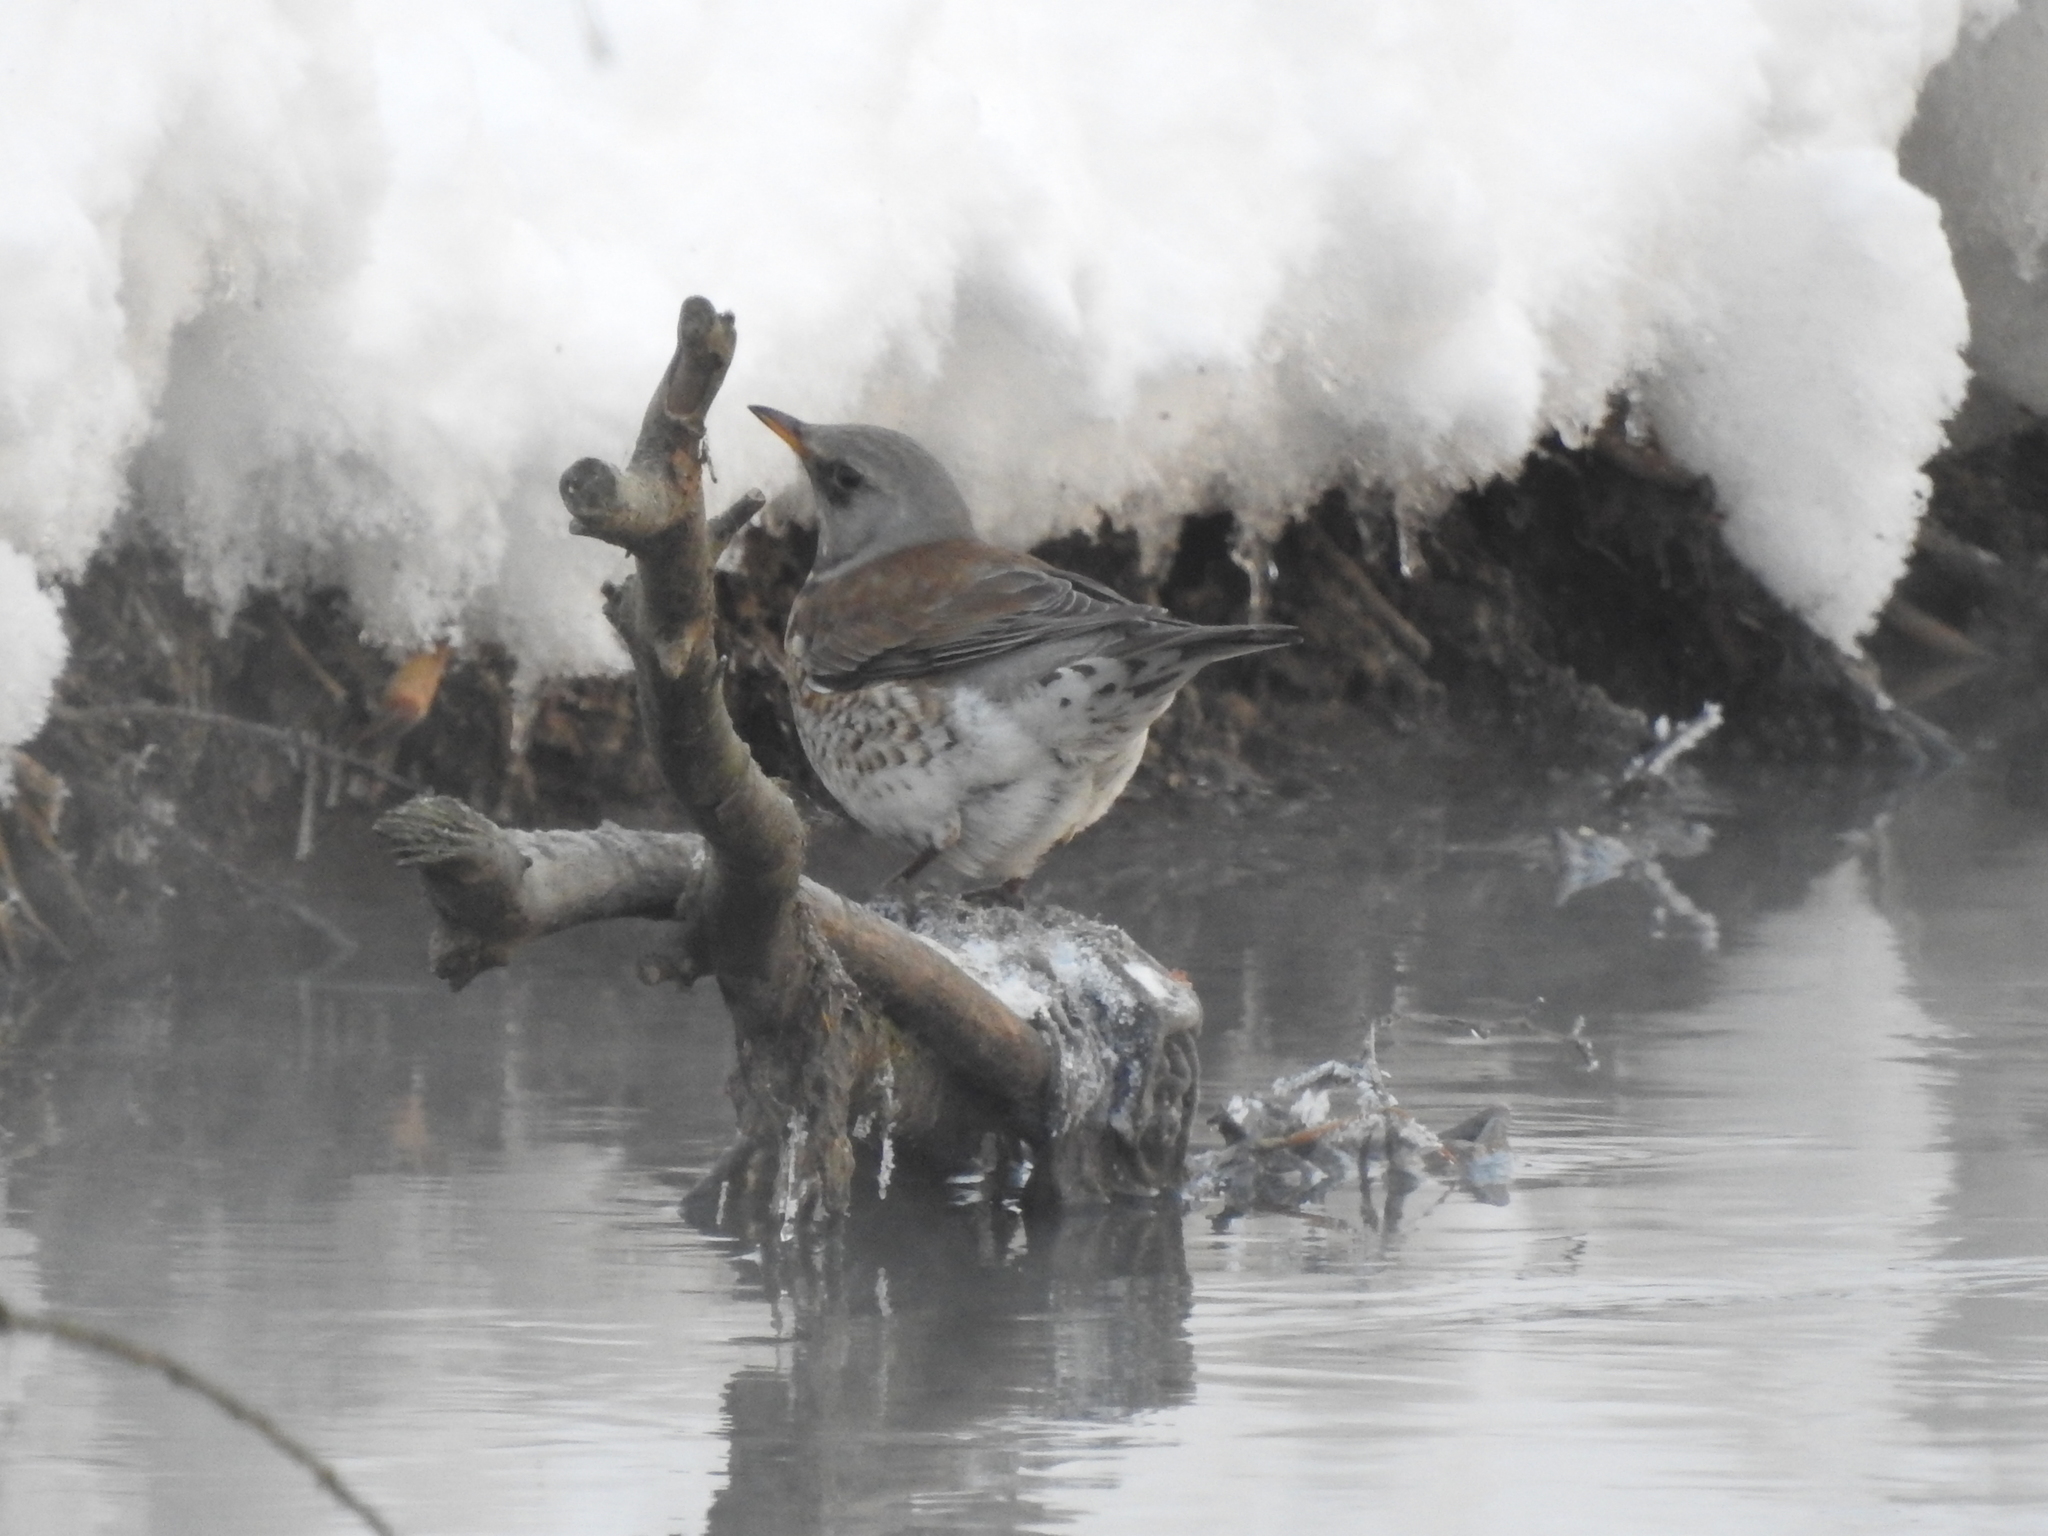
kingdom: Animalia
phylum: Chordata
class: Aves
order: Passeriformes
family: Turdidae
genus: Turdus
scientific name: Turdus pilaris
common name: Fieldfare
